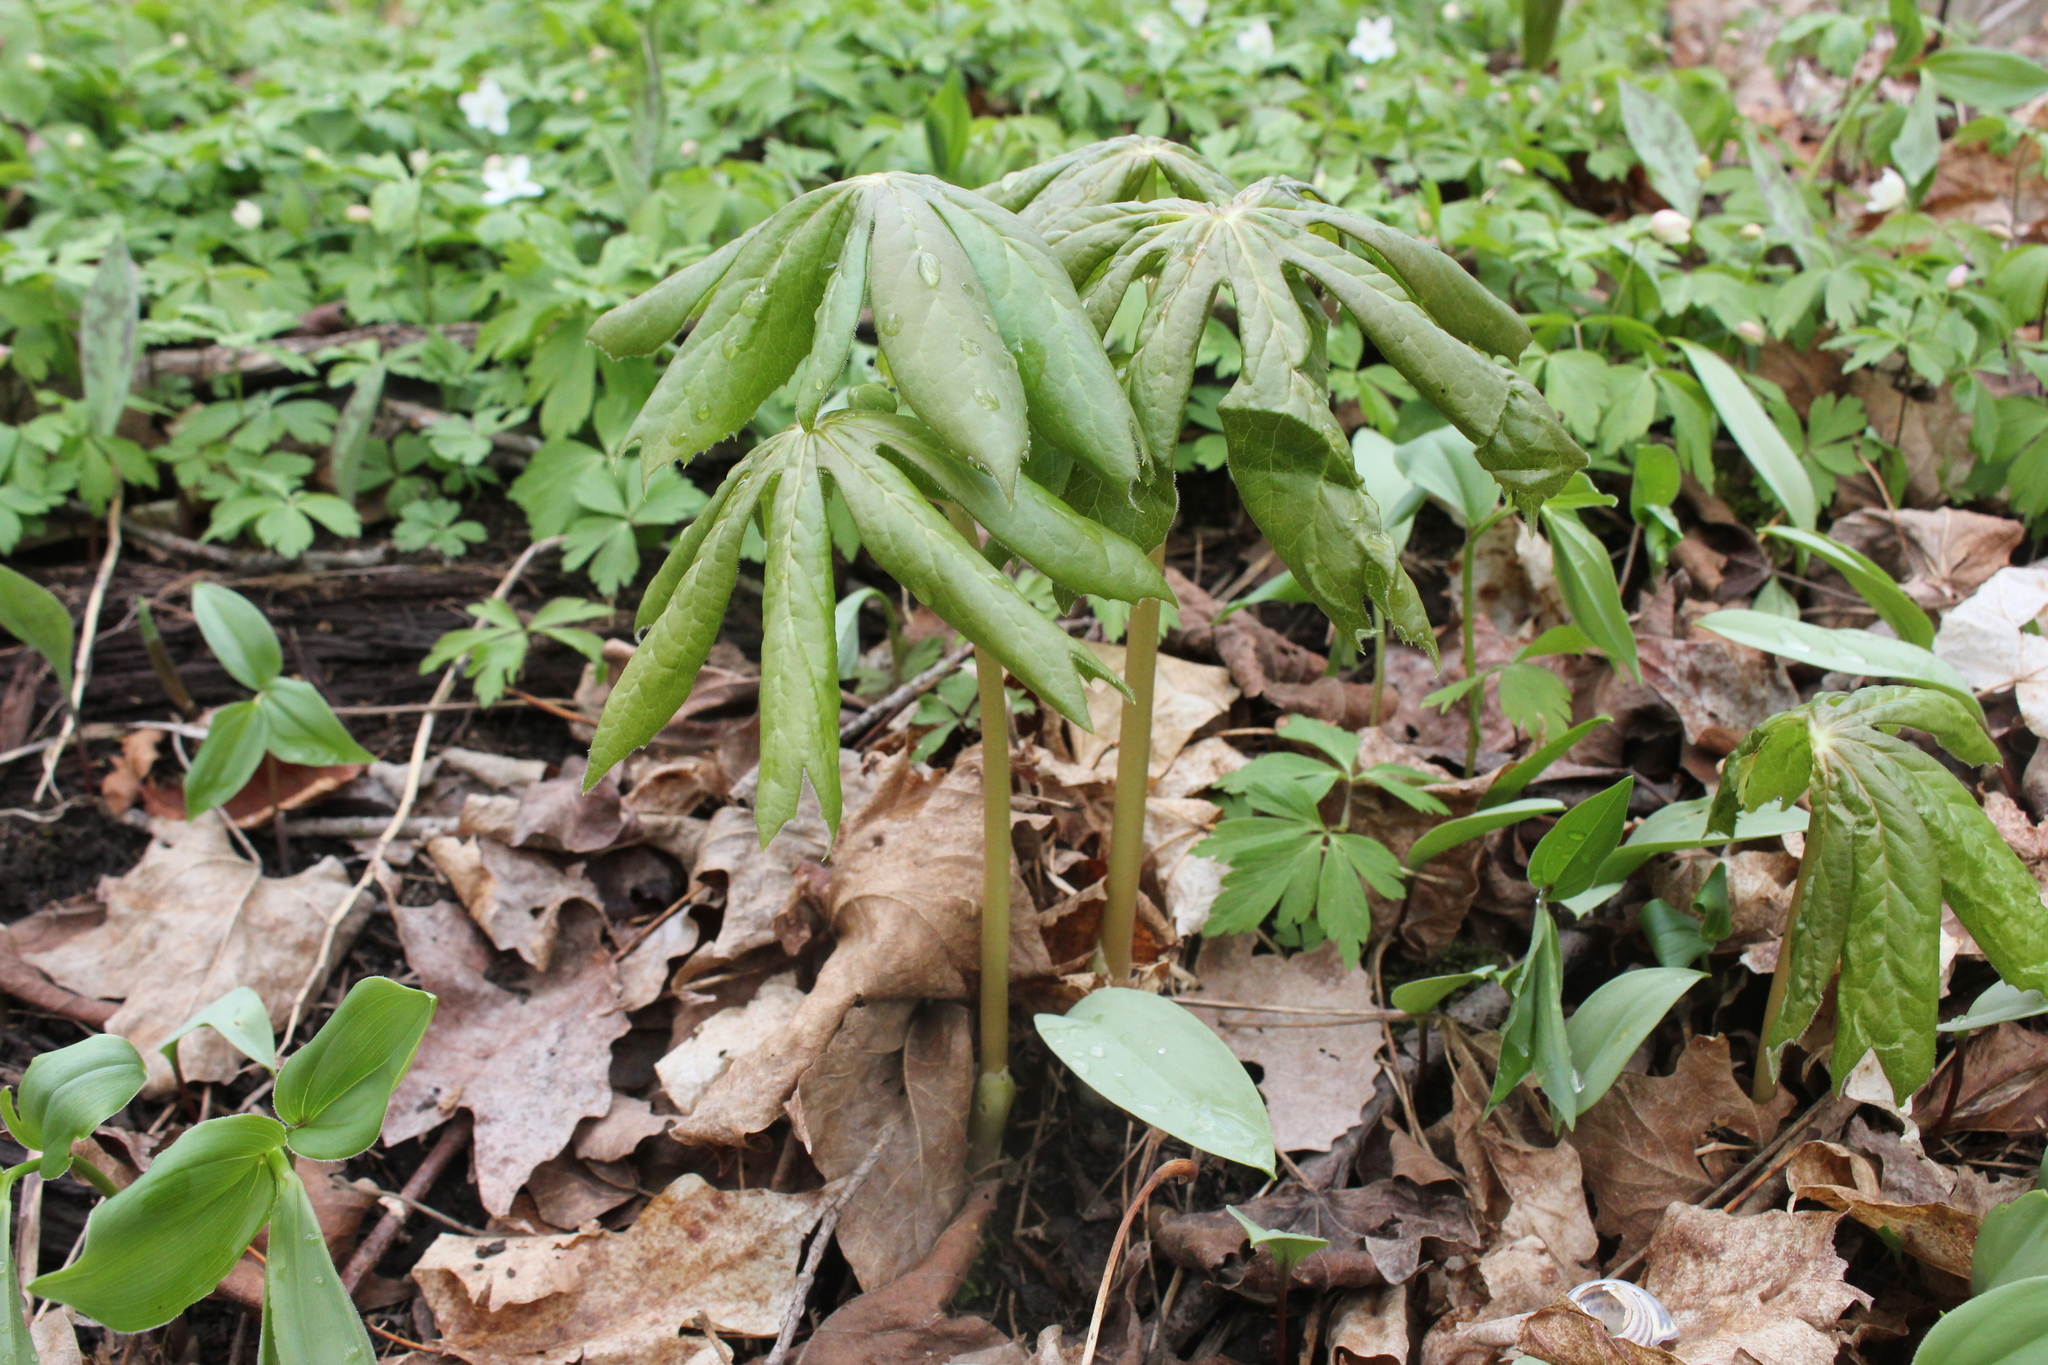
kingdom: Plantae
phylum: Tracheophyta
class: Magnoliopsida
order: Ranunculales
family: Berberidaceae
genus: Podophyllum
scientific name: Podophyllum peltatum
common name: Wild mandrake
